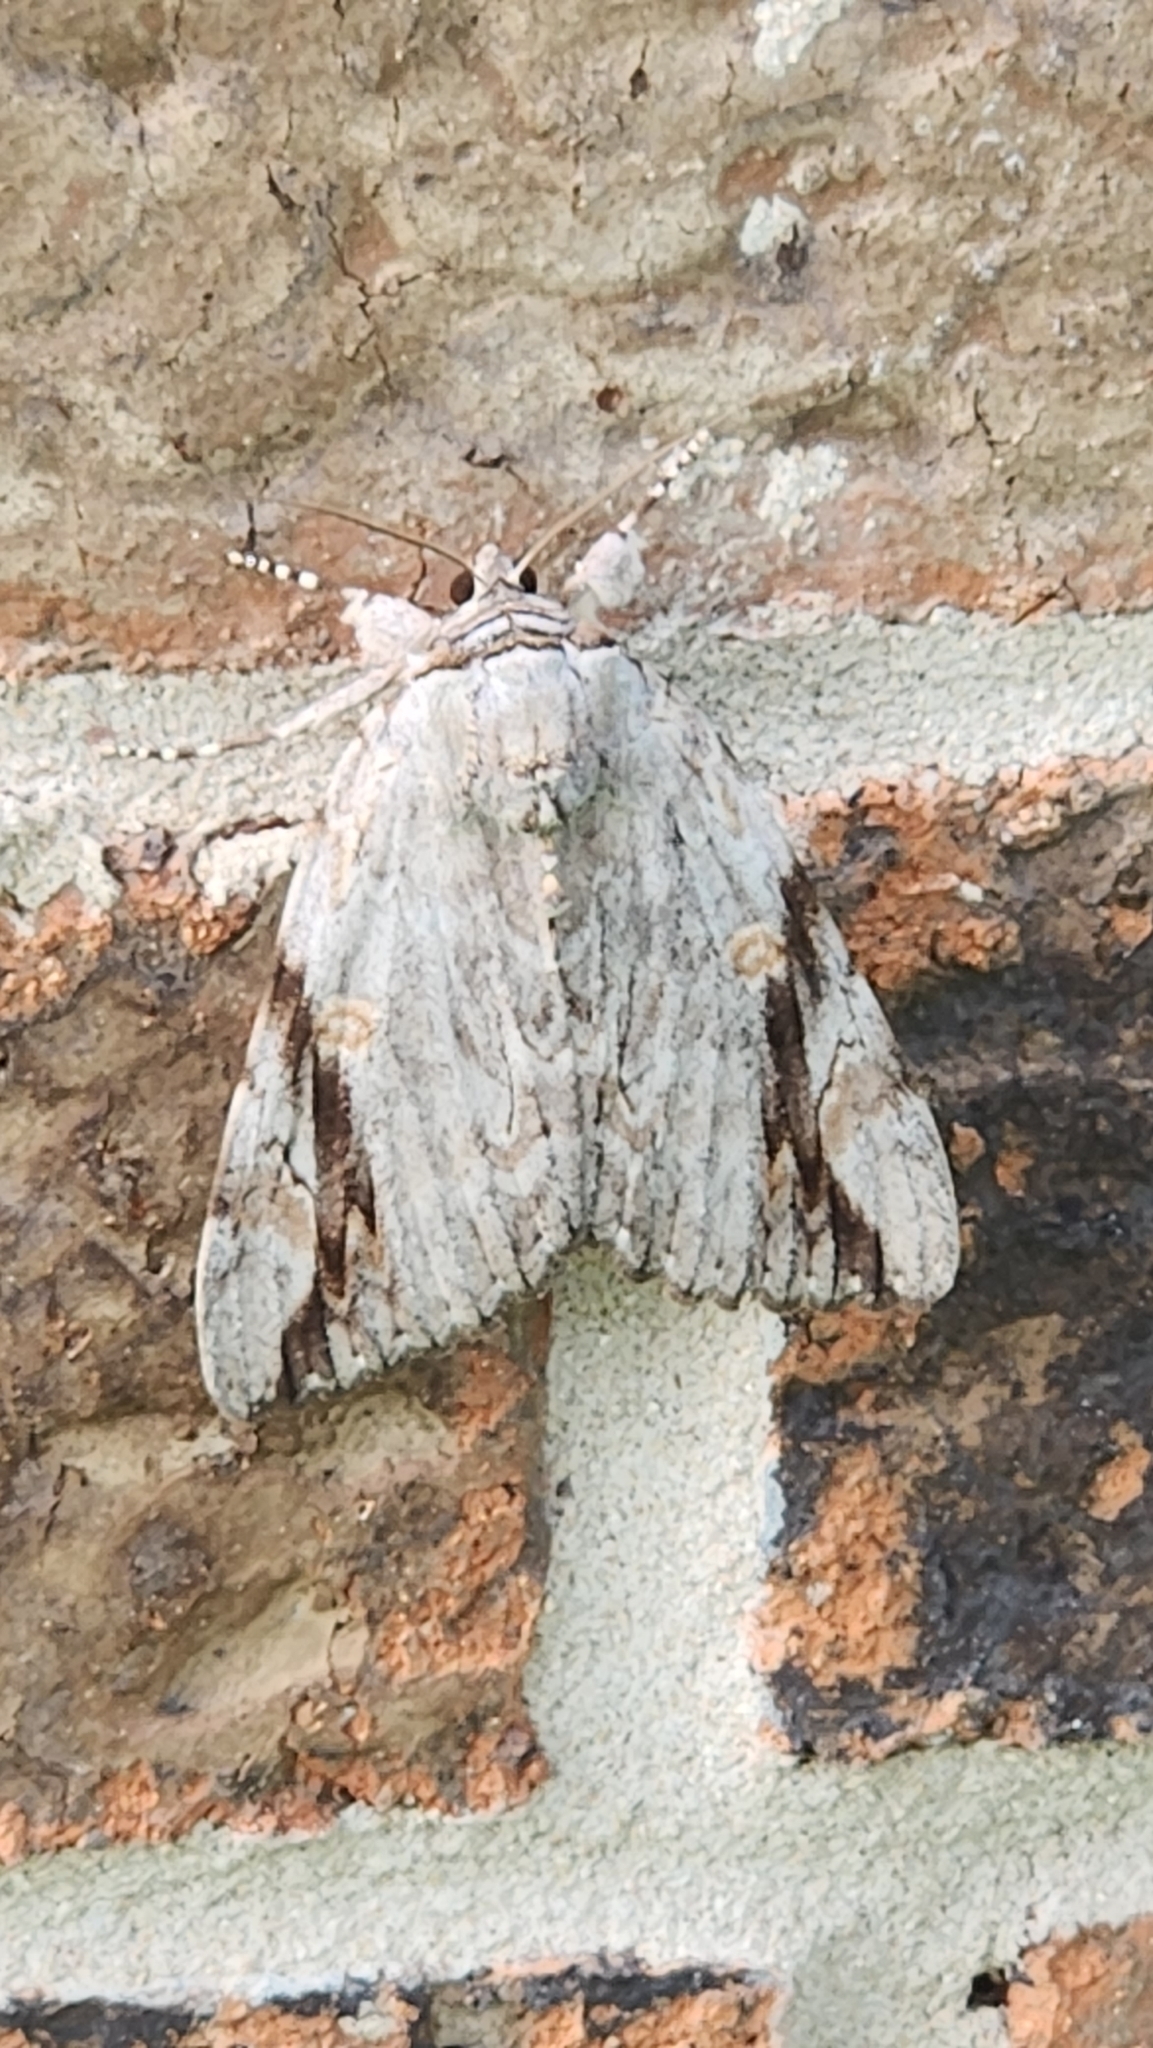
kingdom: Animalia
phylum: Arthropoda
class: Insecta
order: Lepidoptera
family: Erebidae
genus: Catocala
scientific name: Catocala maestosa
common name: Sad underwing
